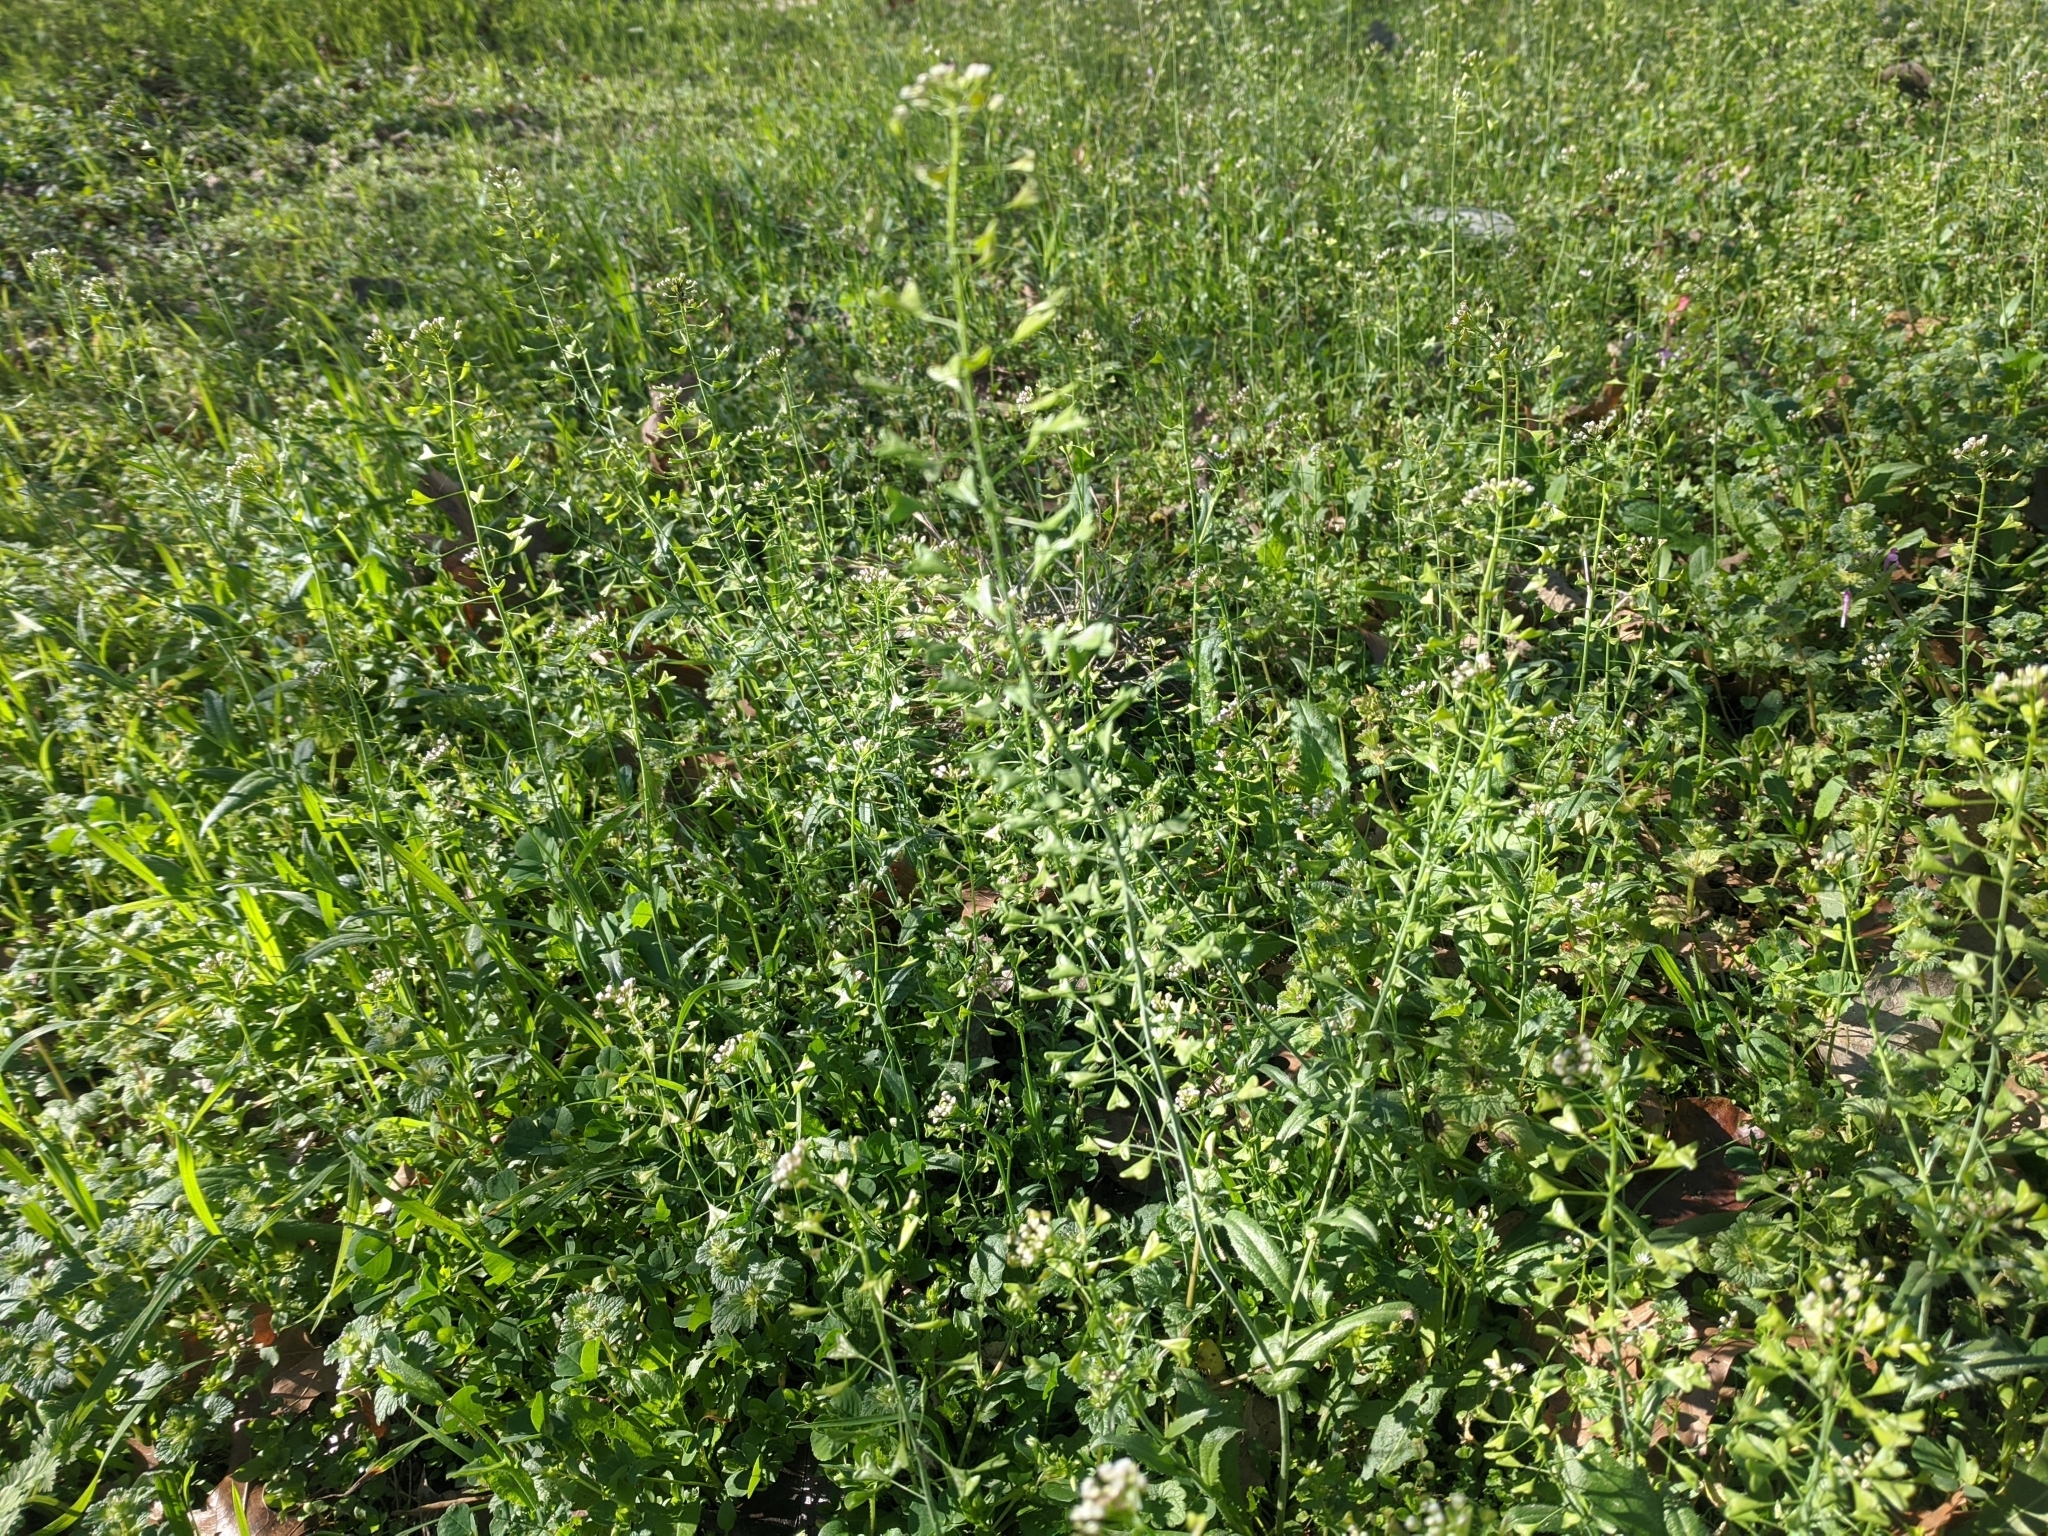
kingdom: Plantae
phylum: Tracheophyta
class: Magnoliopsida
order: Brassicales
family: Brassicaceae
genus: Capsella
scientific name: Capsella bursa-pastoris
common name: Shepherd's purse
